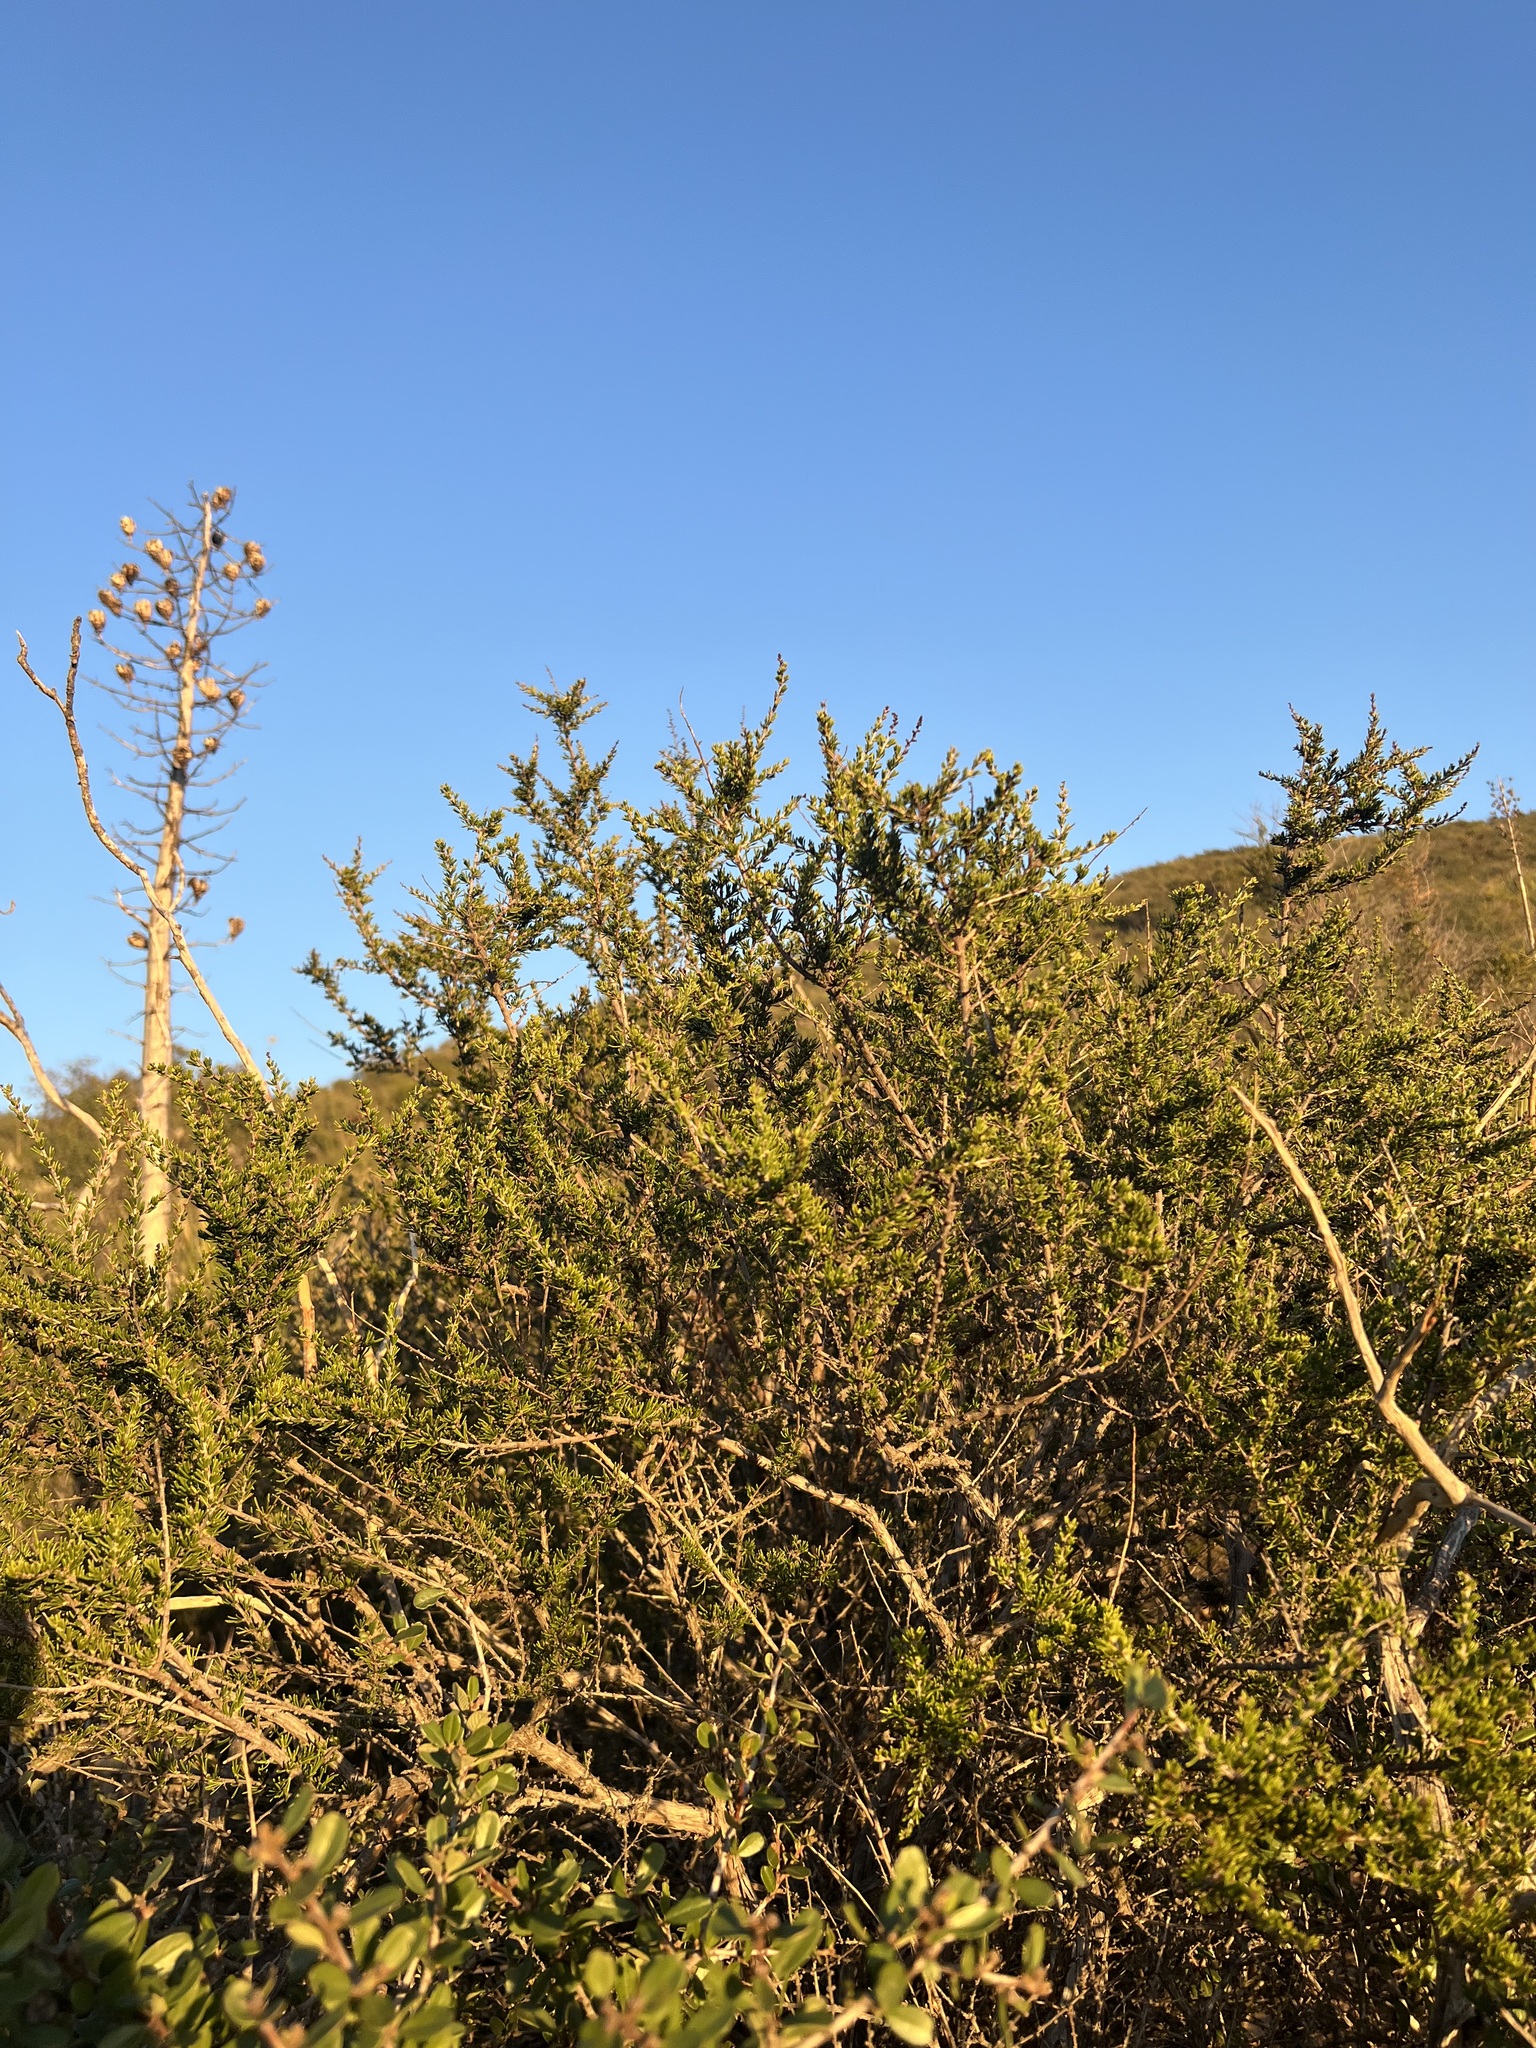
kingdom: Plantae
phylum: Tracheophyta
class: Magnoliopsida
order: Rosales
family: Rosaceae
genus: Adenostoma
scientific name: Adenostoma fasciculatum
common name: Chamise
